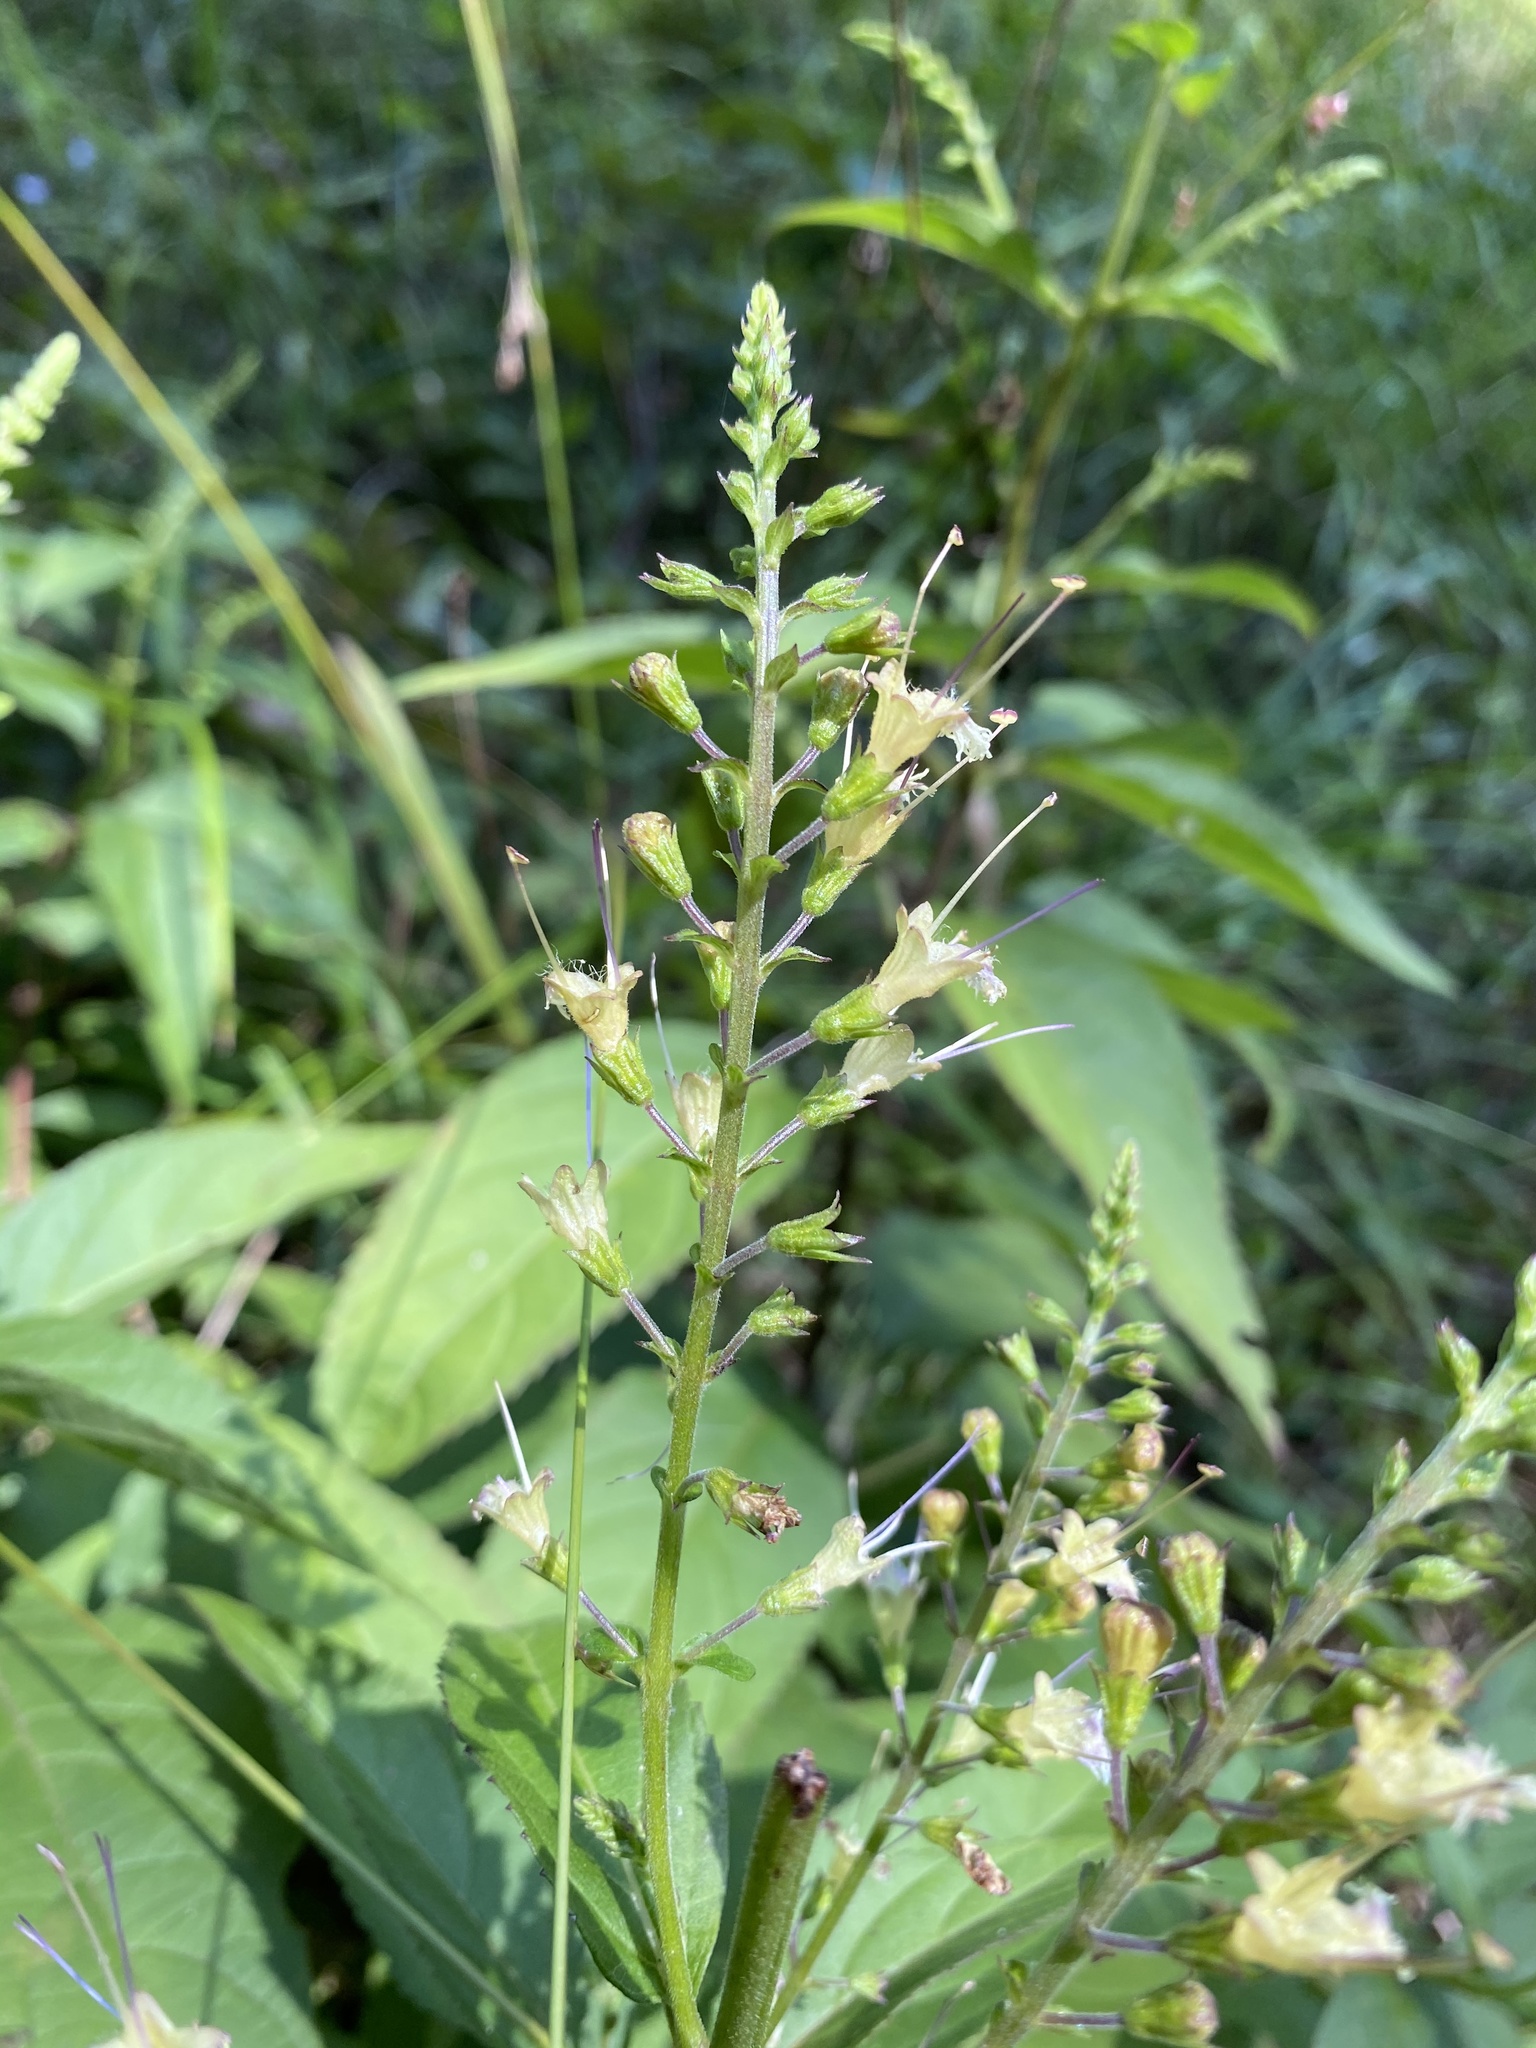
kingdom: Plantae
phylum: Tracheophyta
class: Magnoliopsida
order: Lamiales
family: Lamiaceae
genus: Collinsonia
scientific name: Collinsonia punctata
